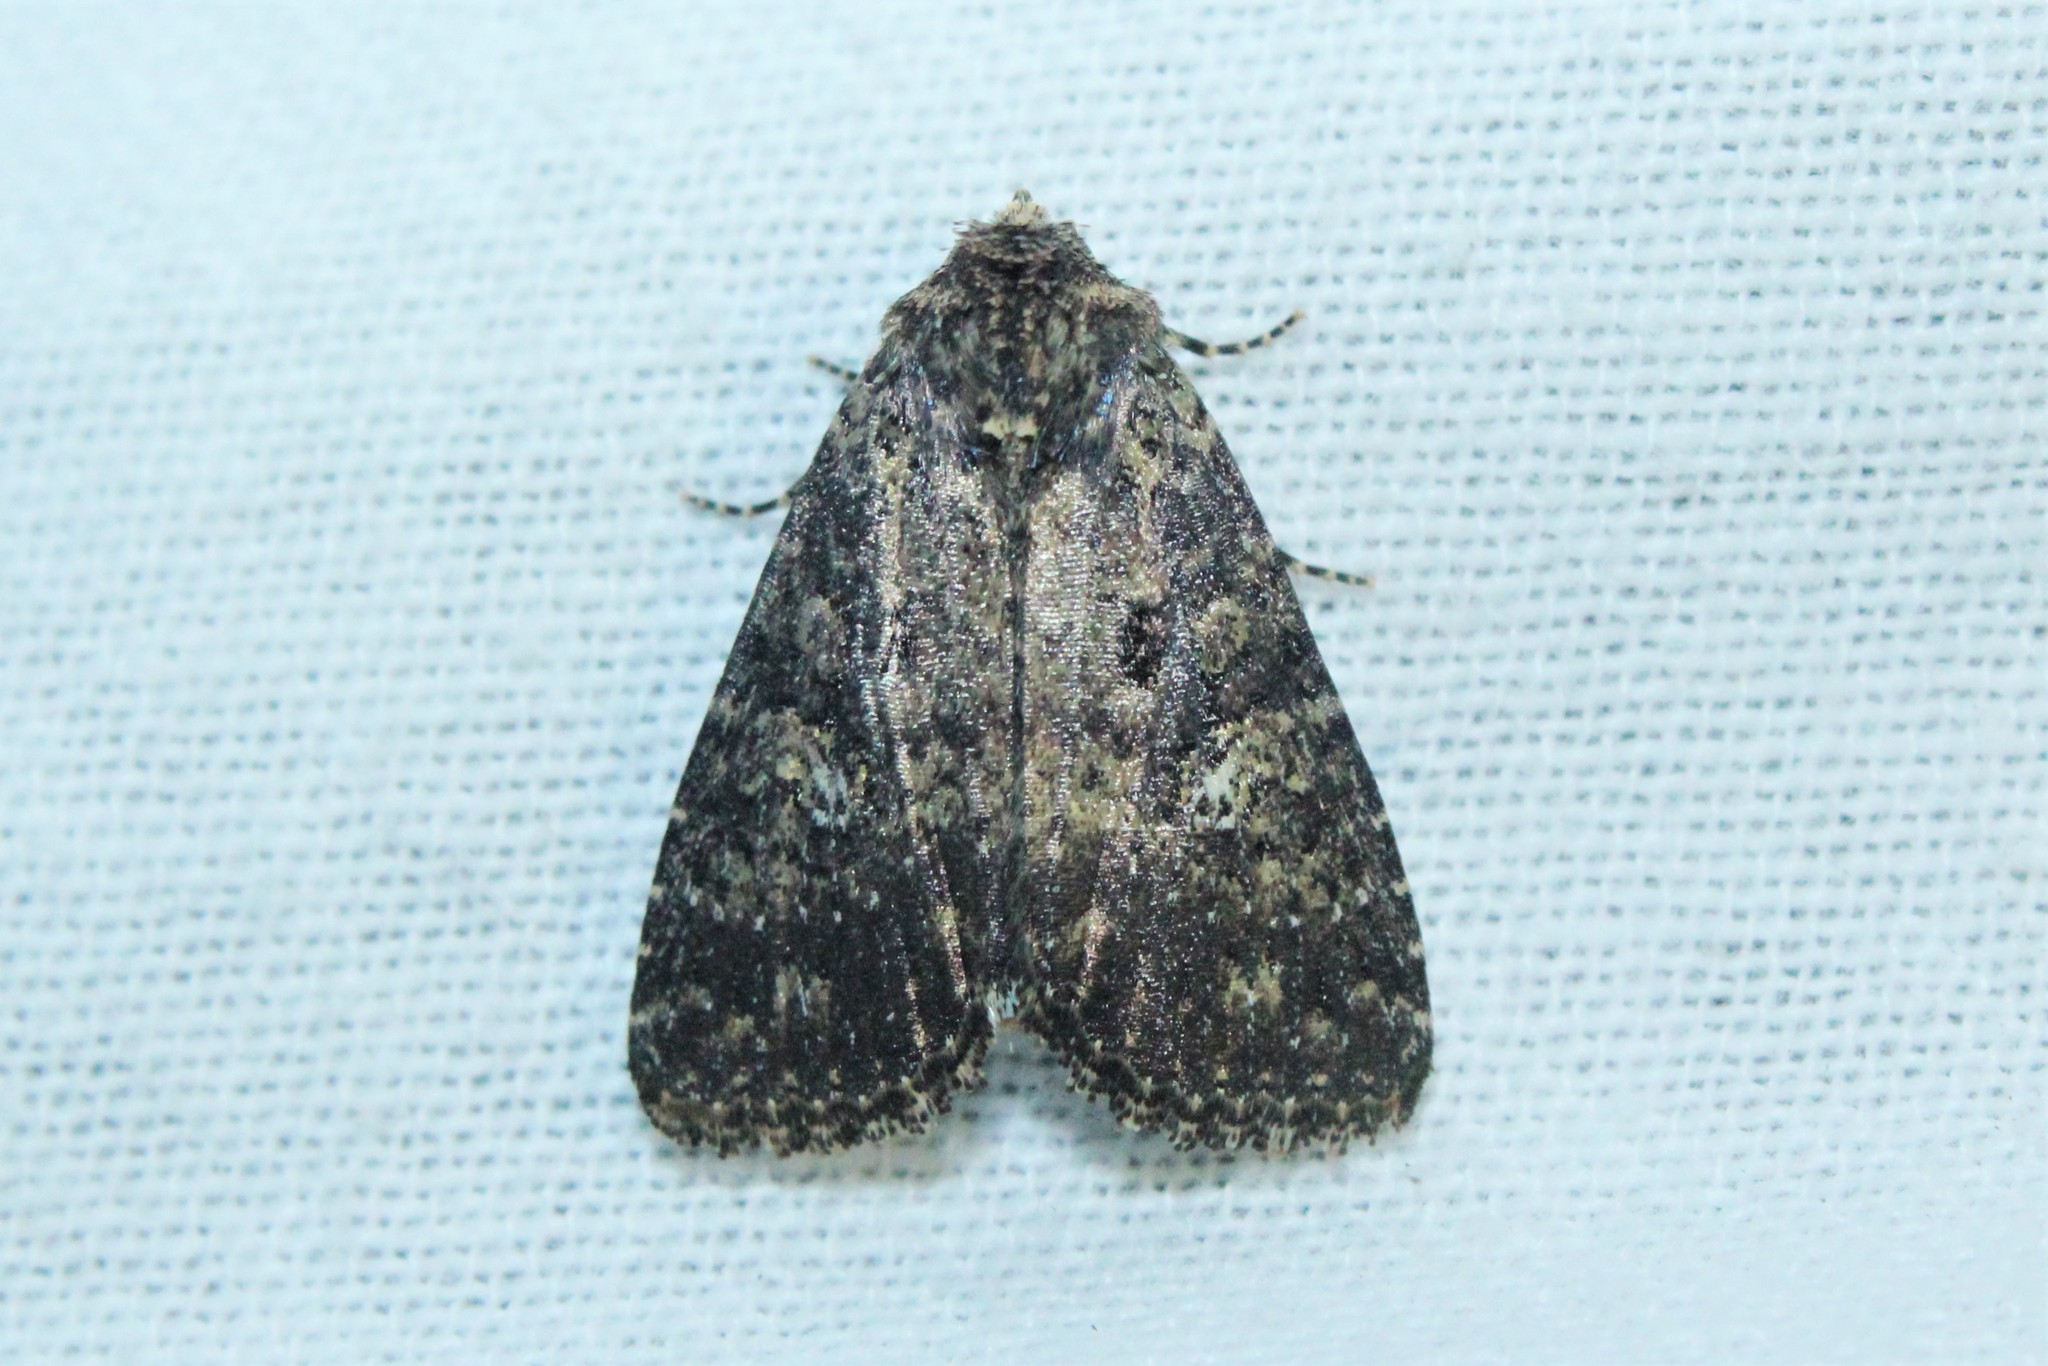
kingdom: Animalia
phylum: Arthropoda
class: Insecta
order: Lepidoptera
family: Noctuidae
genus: Condica
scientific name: Condica vecors
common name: Dusky groundling
